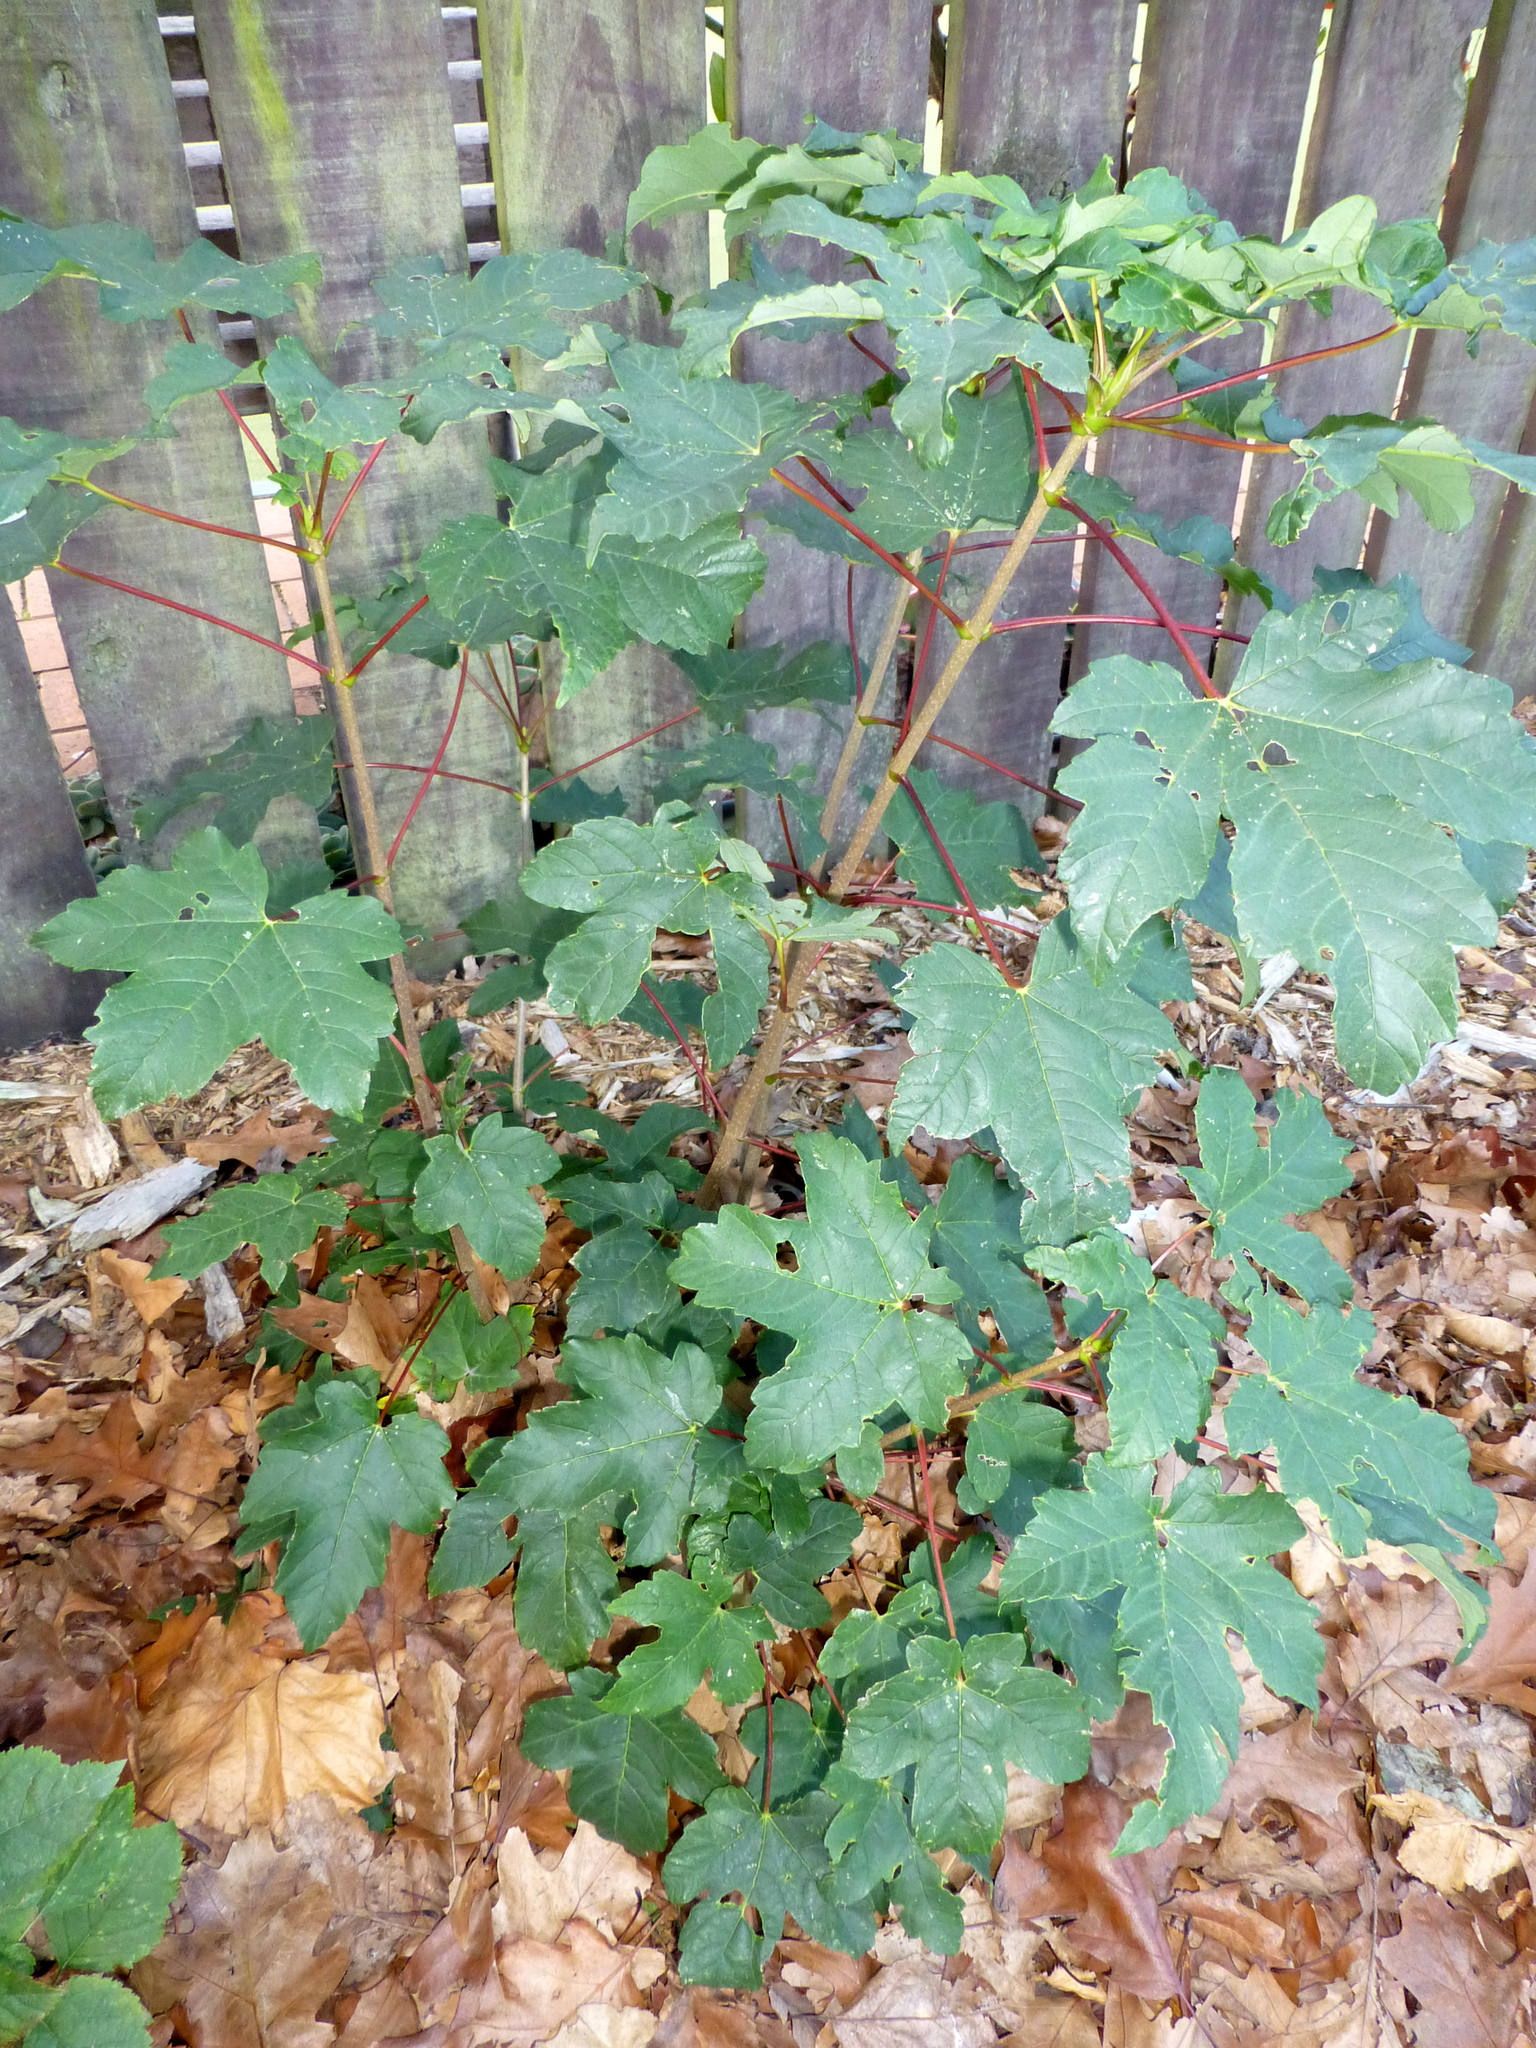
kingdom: Plantae
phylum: Tracheophyta
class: Magnoliopsida
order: Sapindales
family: Sapindaceae
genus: Acer
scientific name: Acer pseudoplatanus
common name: Sycamore
